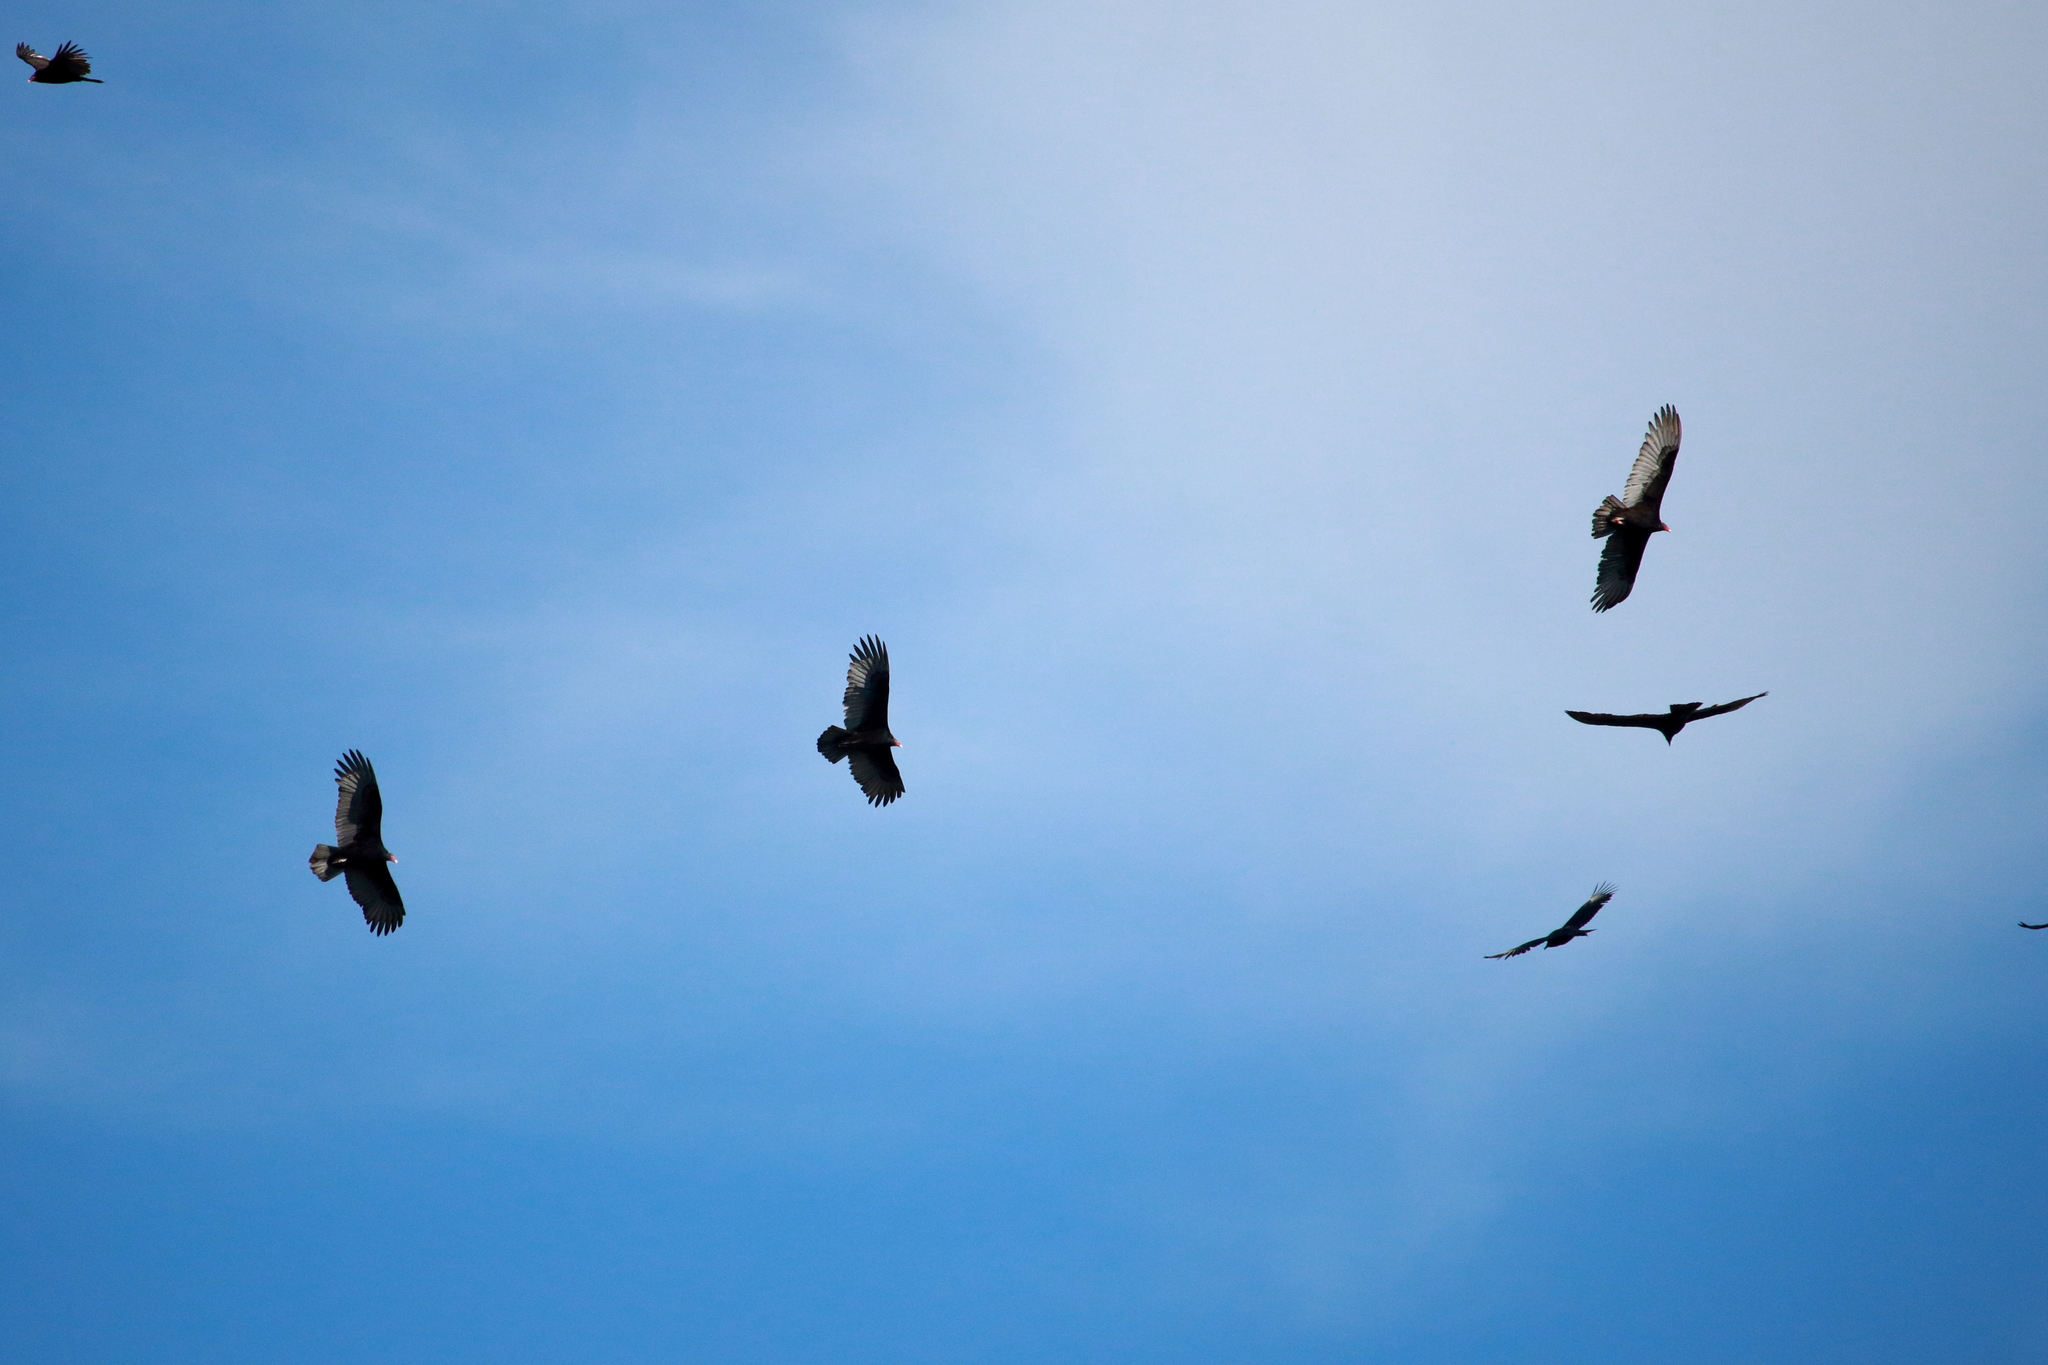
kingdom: Animalia
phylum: Chordata
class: Aves
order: Accipitriformes
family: Cathartidae
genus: Cathartes
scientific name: Cathartes aura
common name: Turkey vulture
